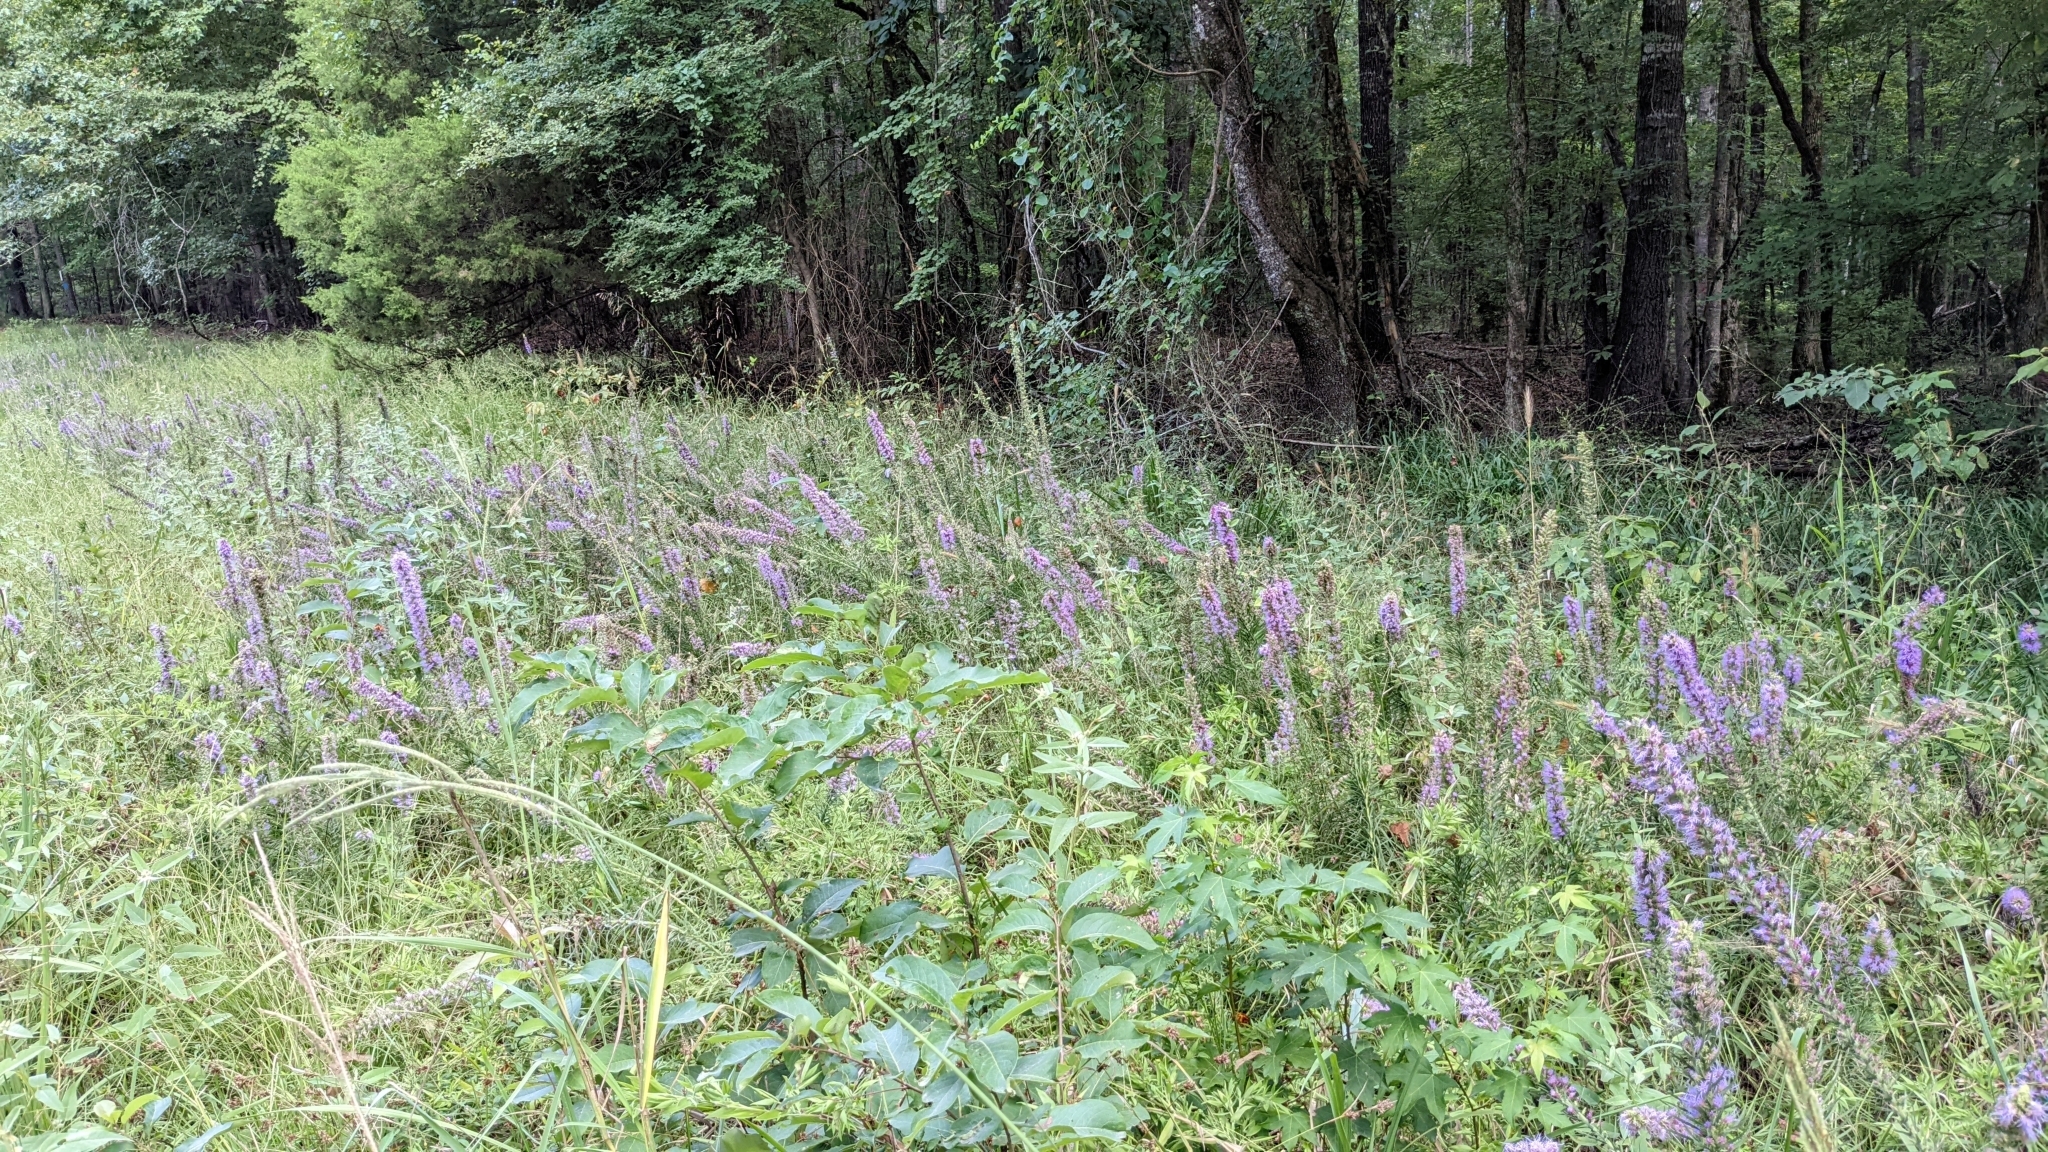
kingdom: Plantae
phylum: Tracheophyta
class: Magnoliopsida
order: Asterales
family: Asteraceae
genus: Liatris
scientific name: Liatris pycnostachya
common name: Cattail gayfeather
